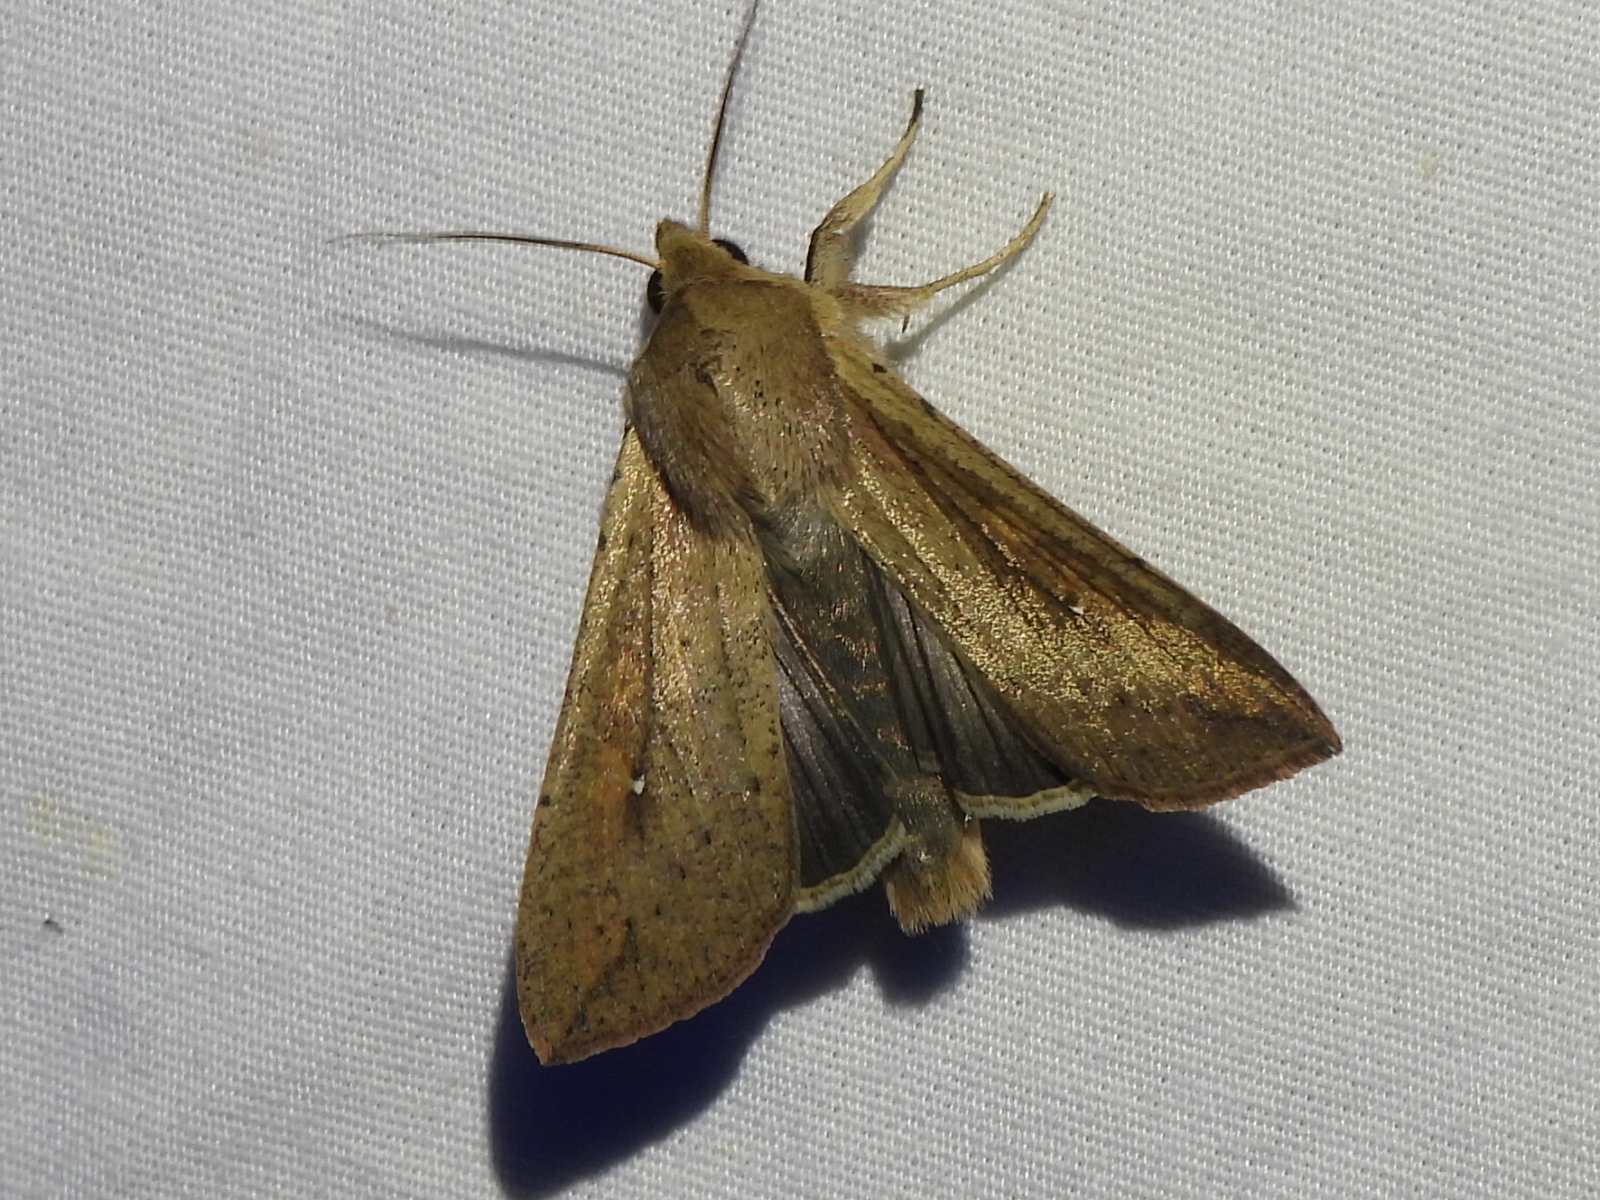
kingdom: Animalia
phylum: Arthropoda
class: Insecta
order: Lepidoptera
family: Noctuidae
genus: Mythimna
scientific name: Mythimna unipuncta
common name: White-speck
